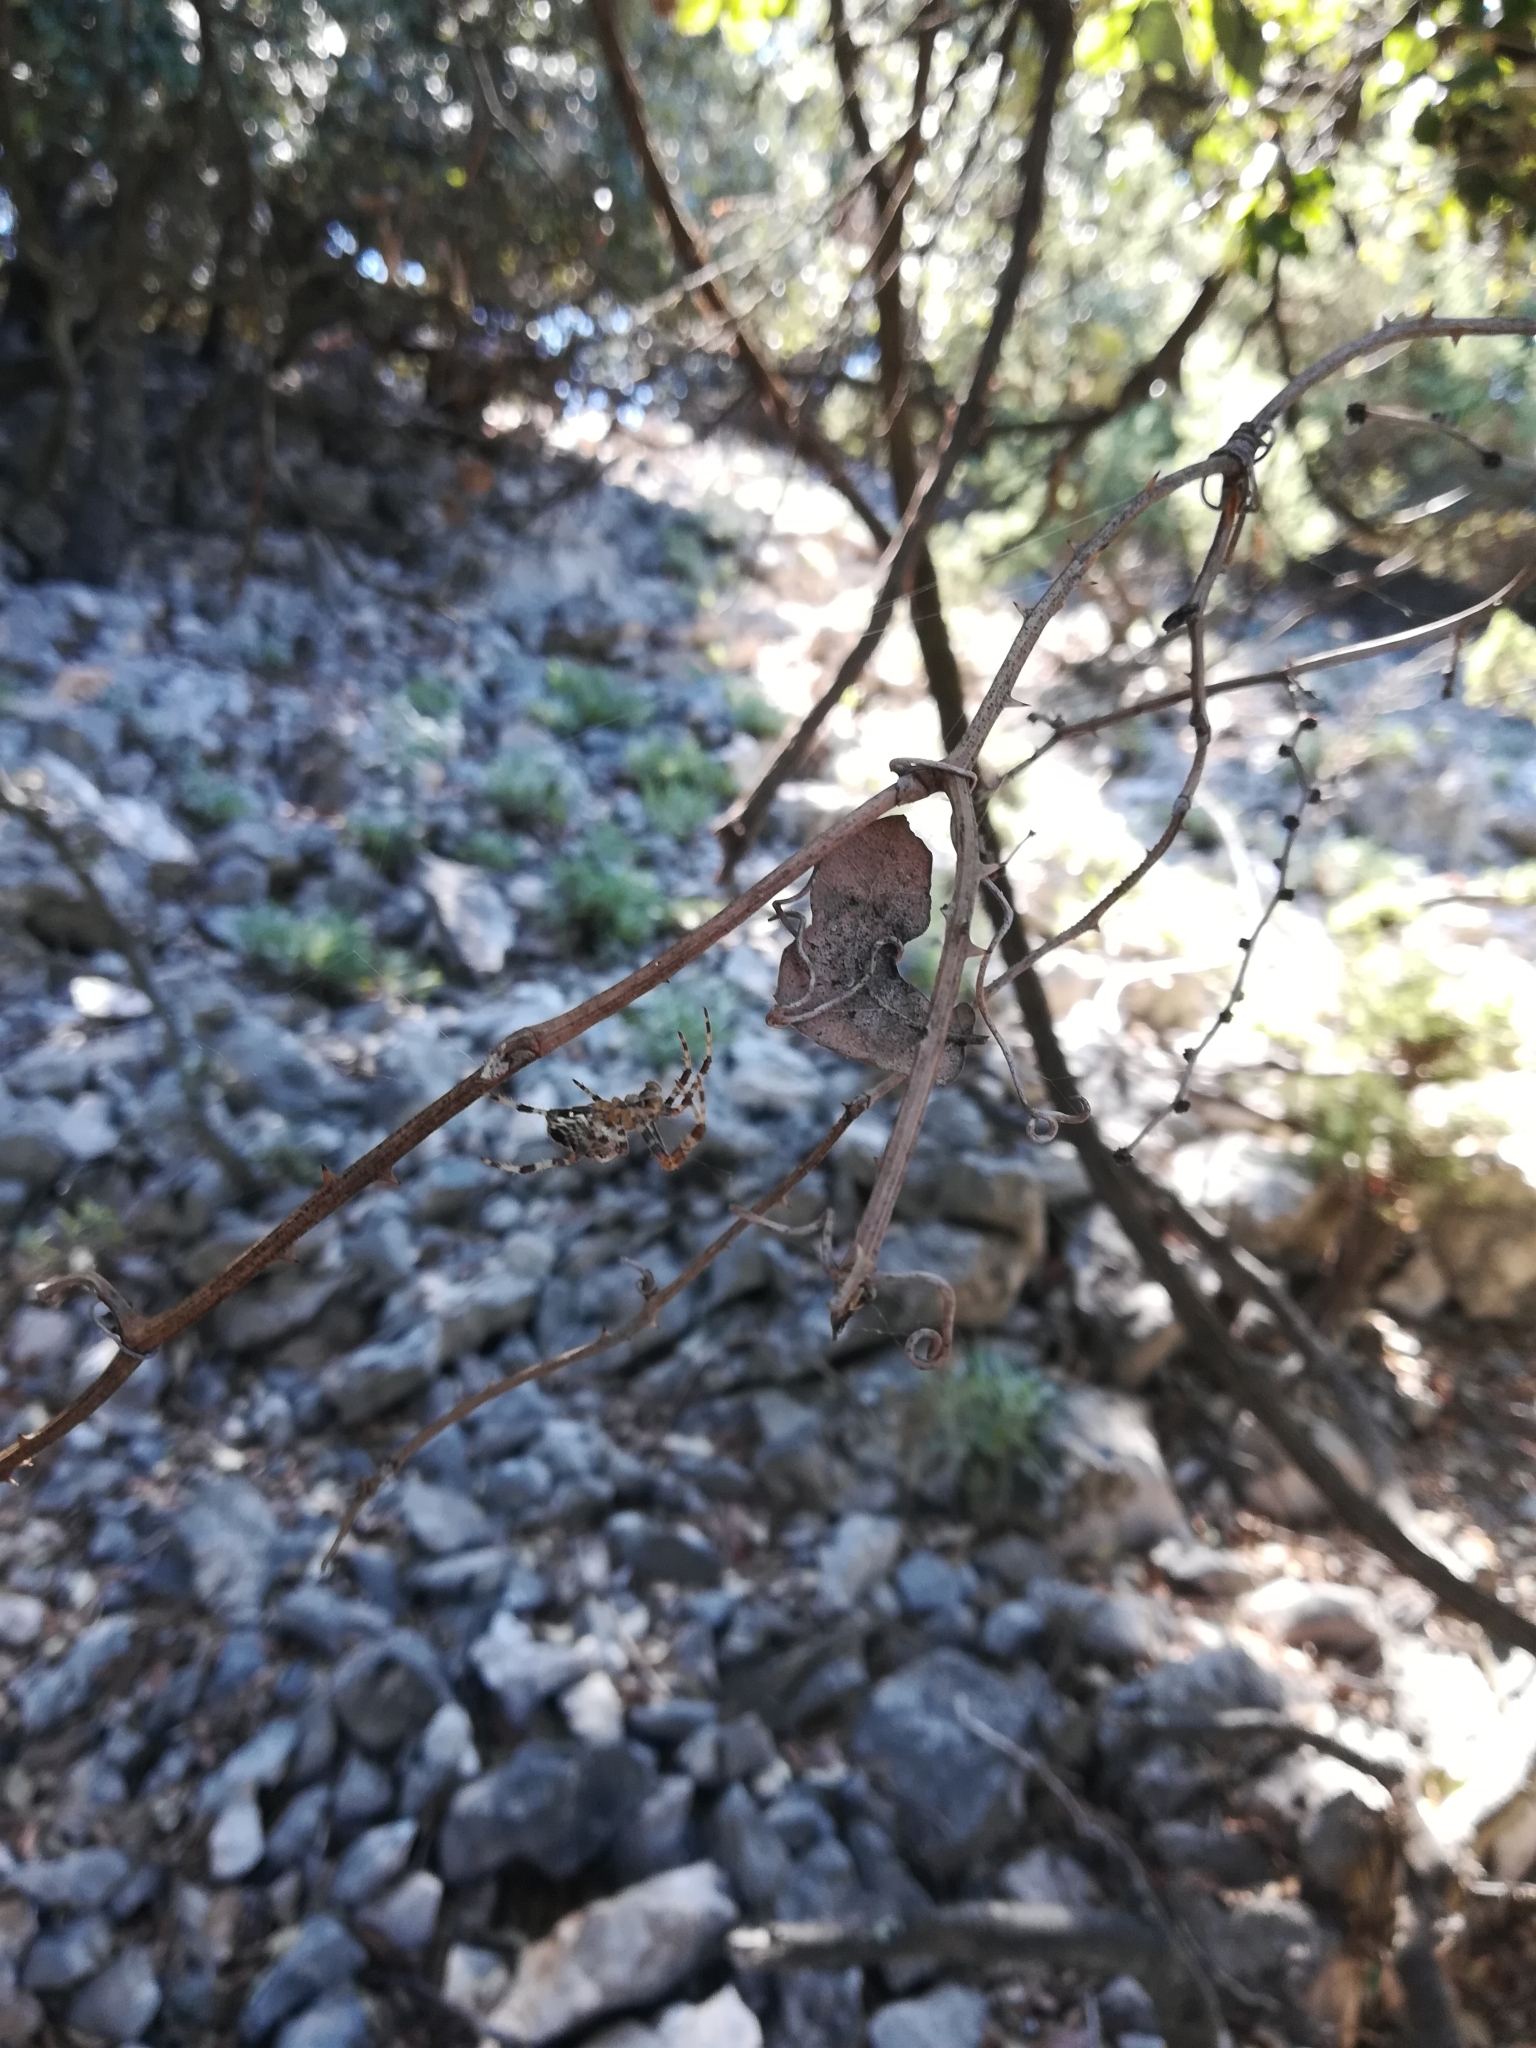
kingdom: Animalia
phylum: Arthropoda
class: Arachnida
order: Araneae
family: Araneidae
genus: Araneus
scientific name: Araneus diadematus
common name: Cross orbweaver
